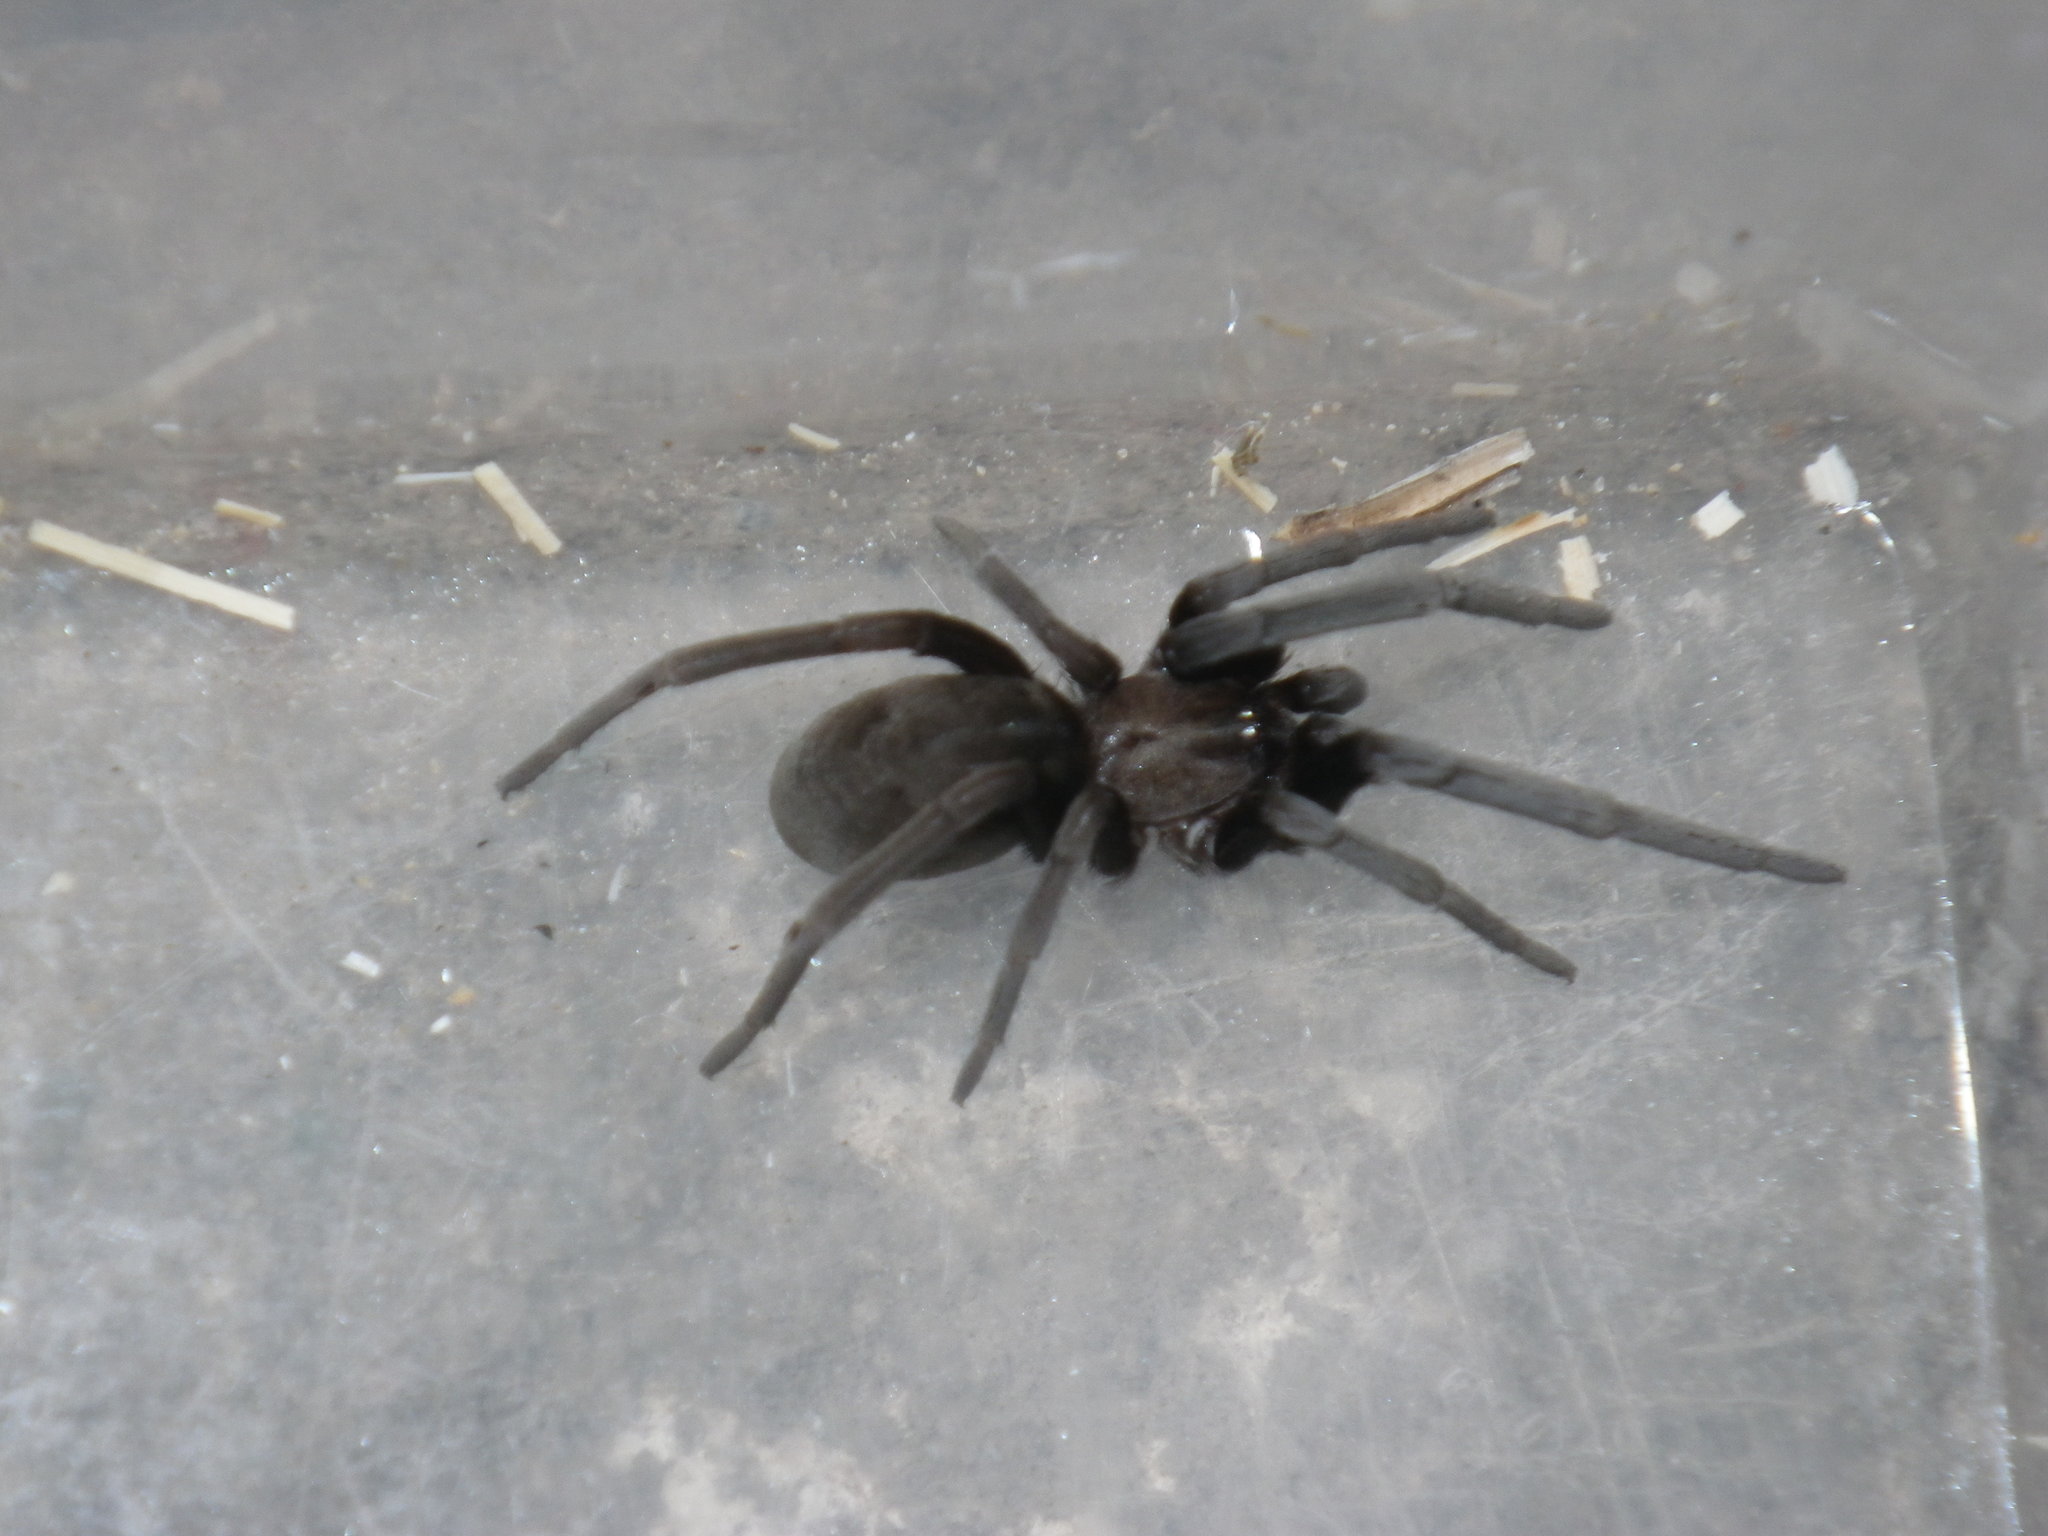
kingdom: Animalia
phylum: Arthropoda
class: Arachnida
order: Araneae
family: Filistatidae
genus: Kukulcania
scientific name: Kukulcania geophila
